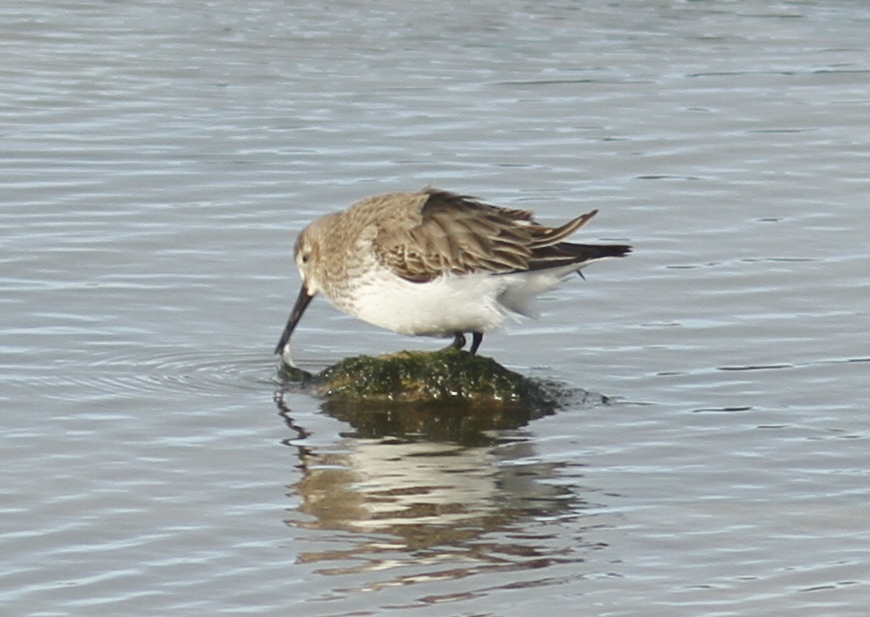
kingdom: Animalia
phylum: Chordata
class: Aves
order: Charadriiformes
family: Scolopacidae
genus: Calidris
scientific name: Calidris alpina
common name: Dunlin
